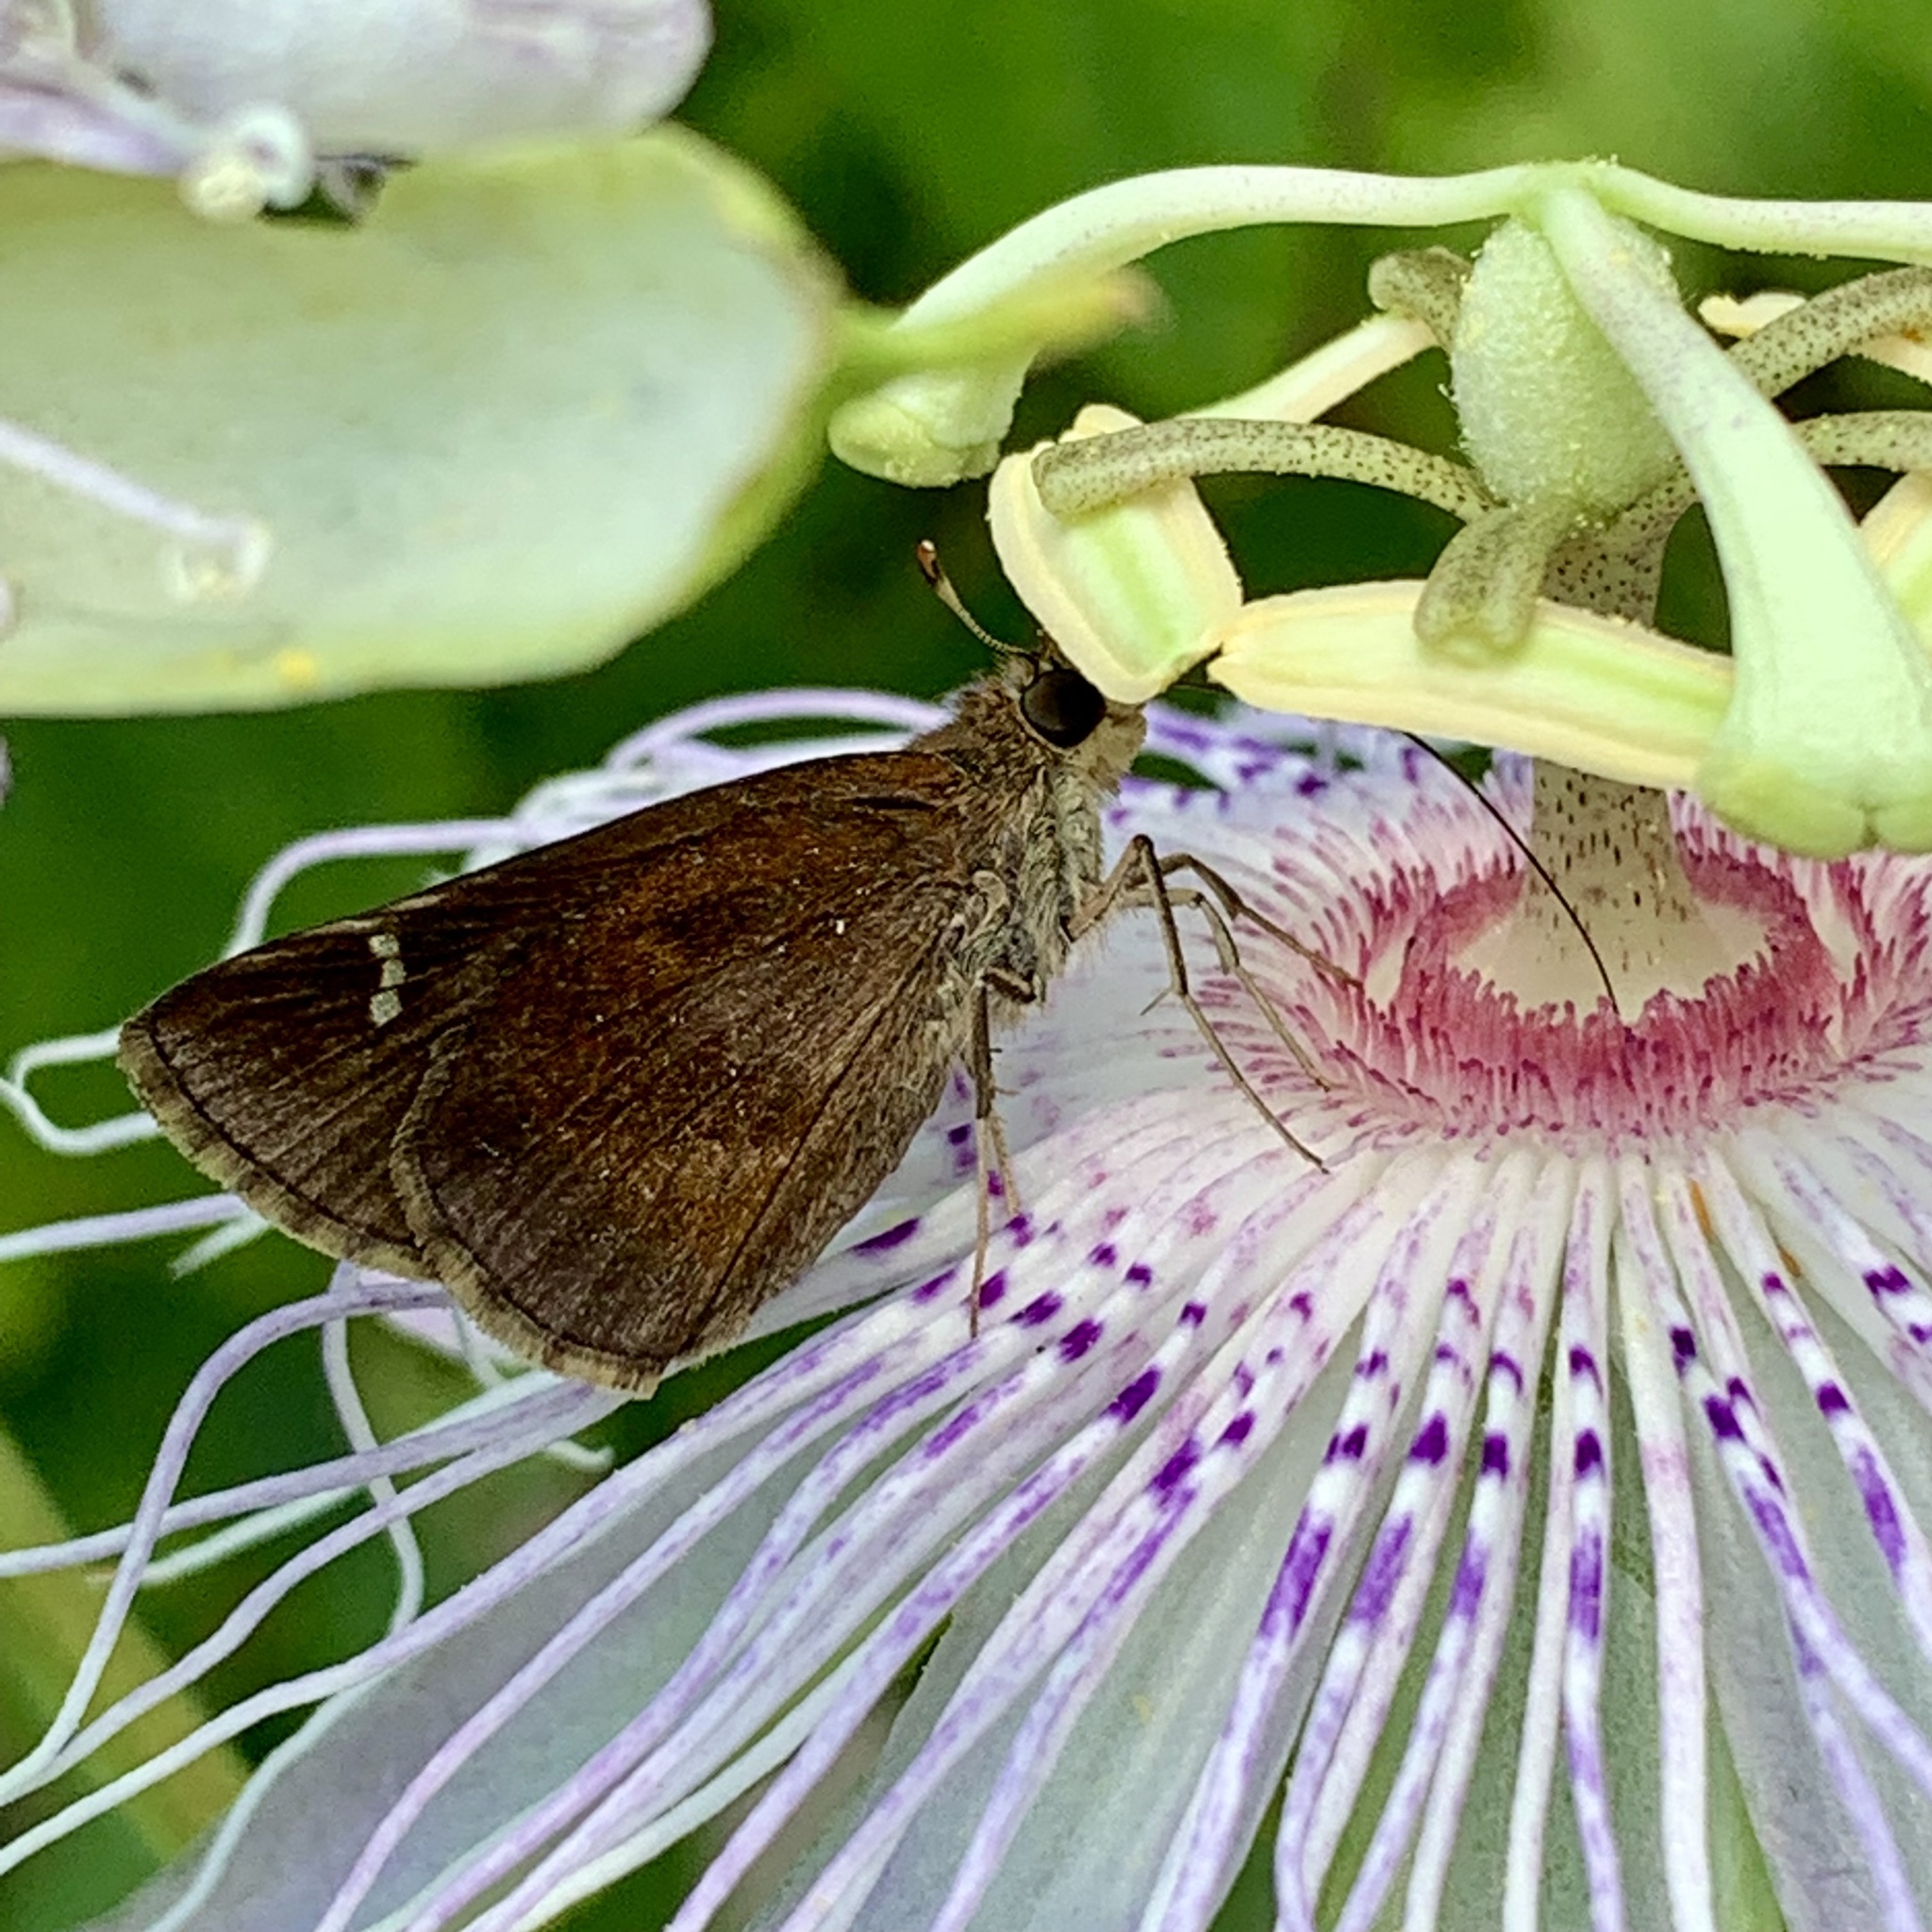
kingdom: Animalia
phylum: Arthropoda
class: Insecta
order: Lepidoptera
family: Hesperiidae
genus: Lerema
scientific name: Lerema accius
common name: Clouded skipper
